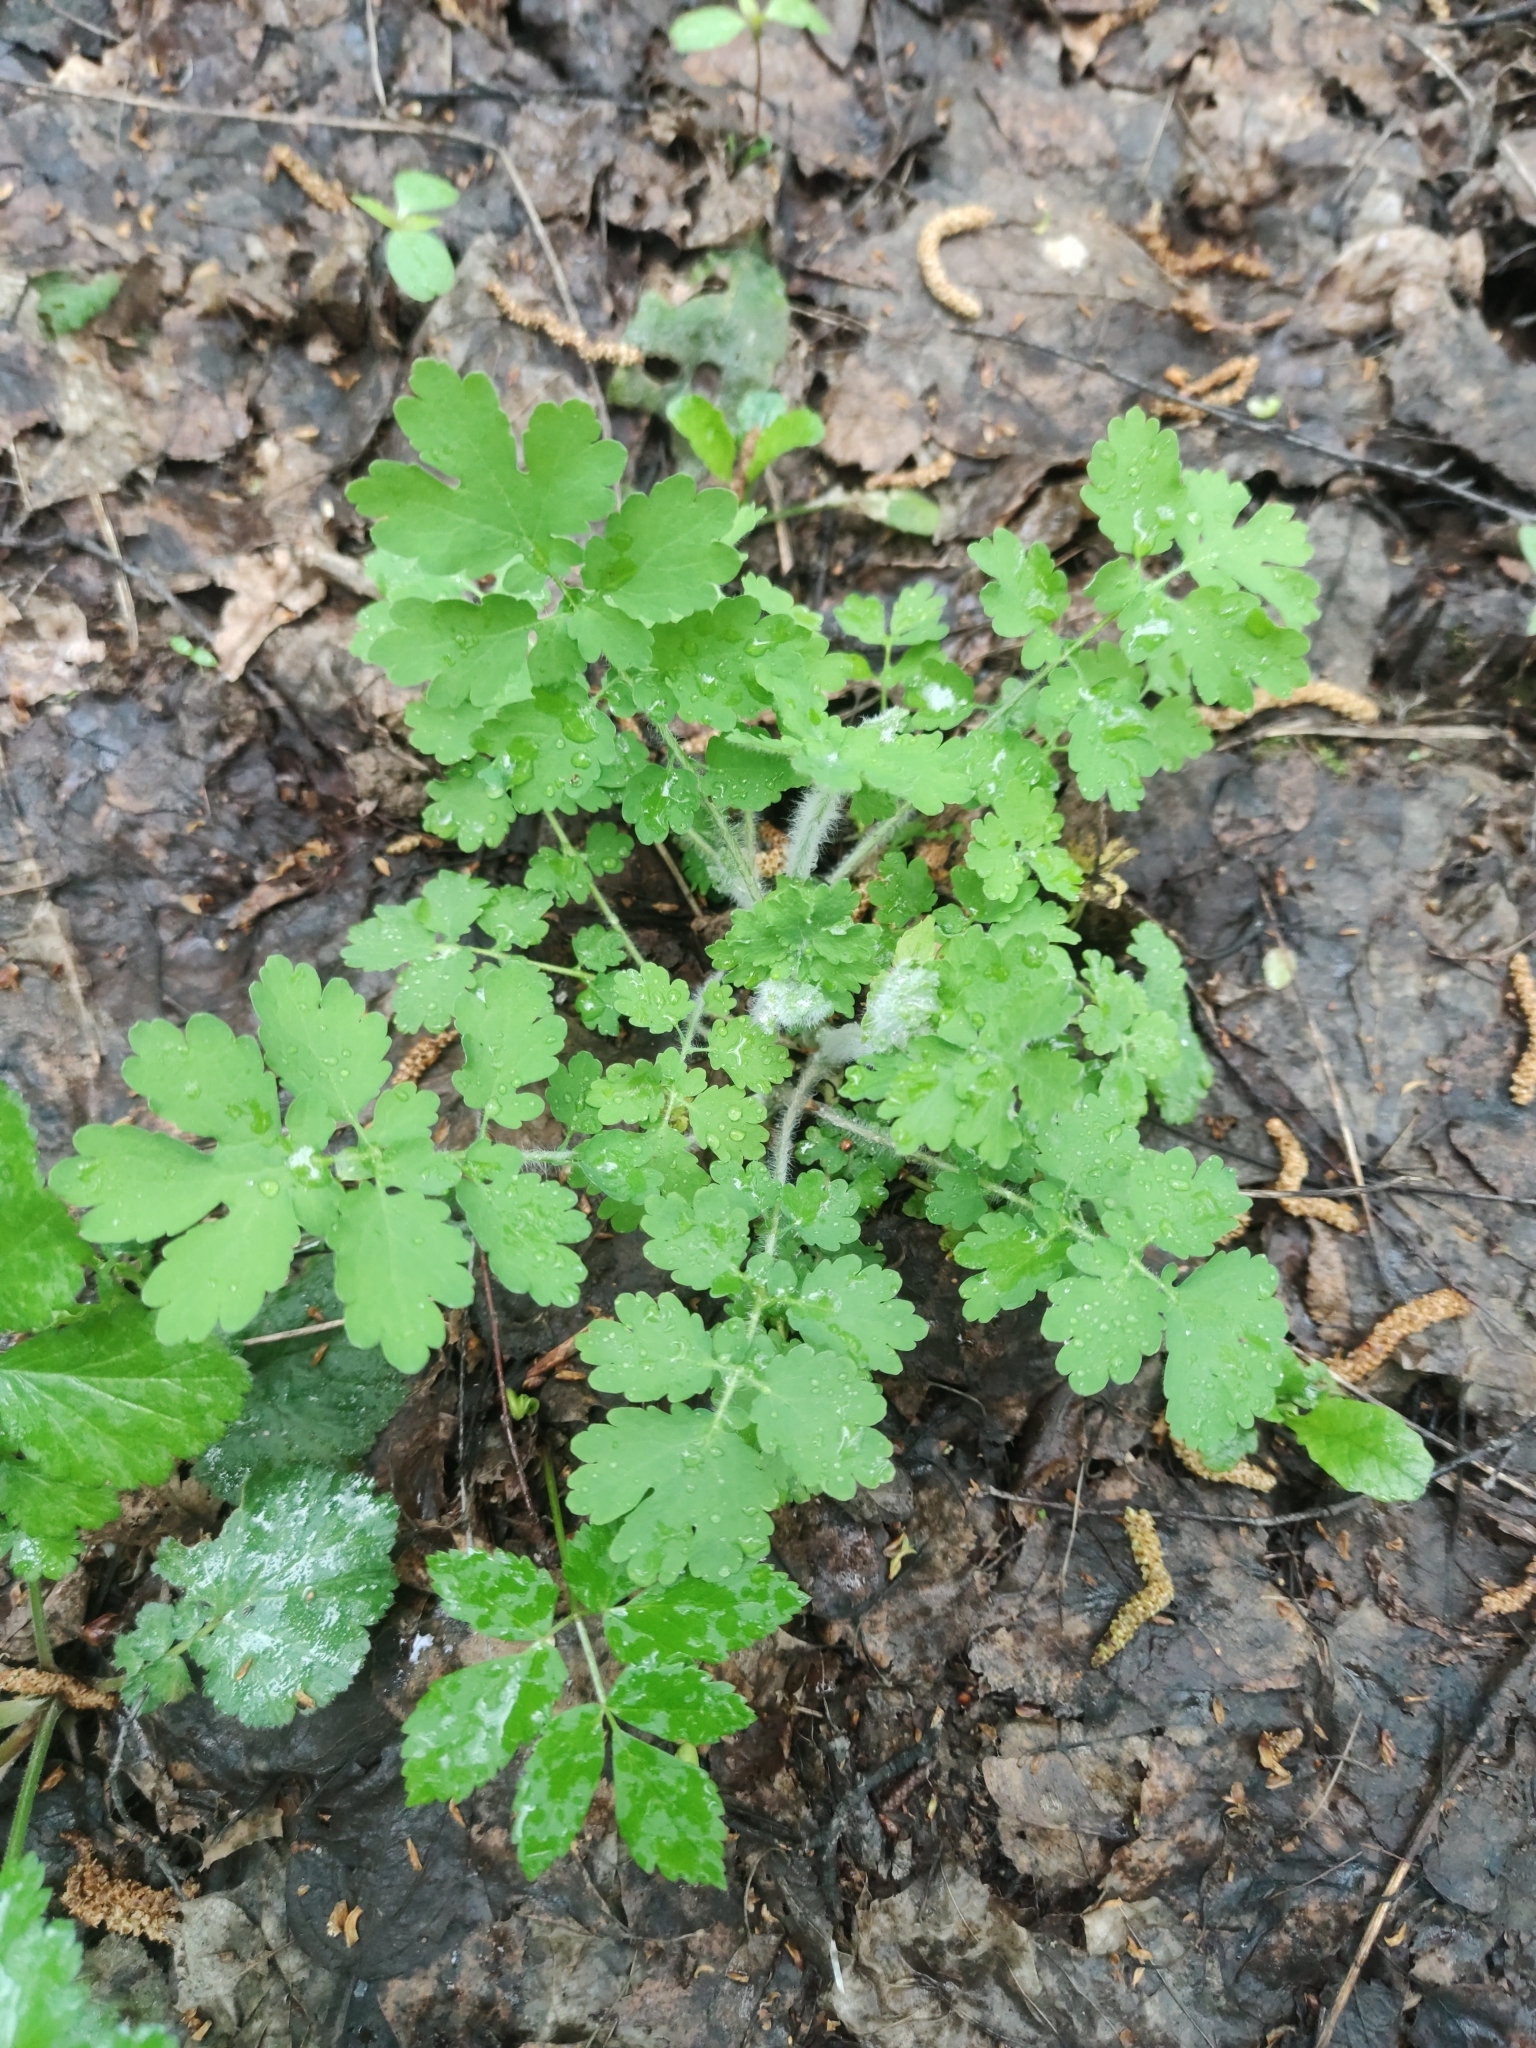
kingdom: Plantae
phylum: Tracheophyta
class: Magnoliopsida
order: Ranunculales
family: Papaveraceae
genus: Chelidonium
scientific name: Chelidonium majus
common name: Greater celandine
